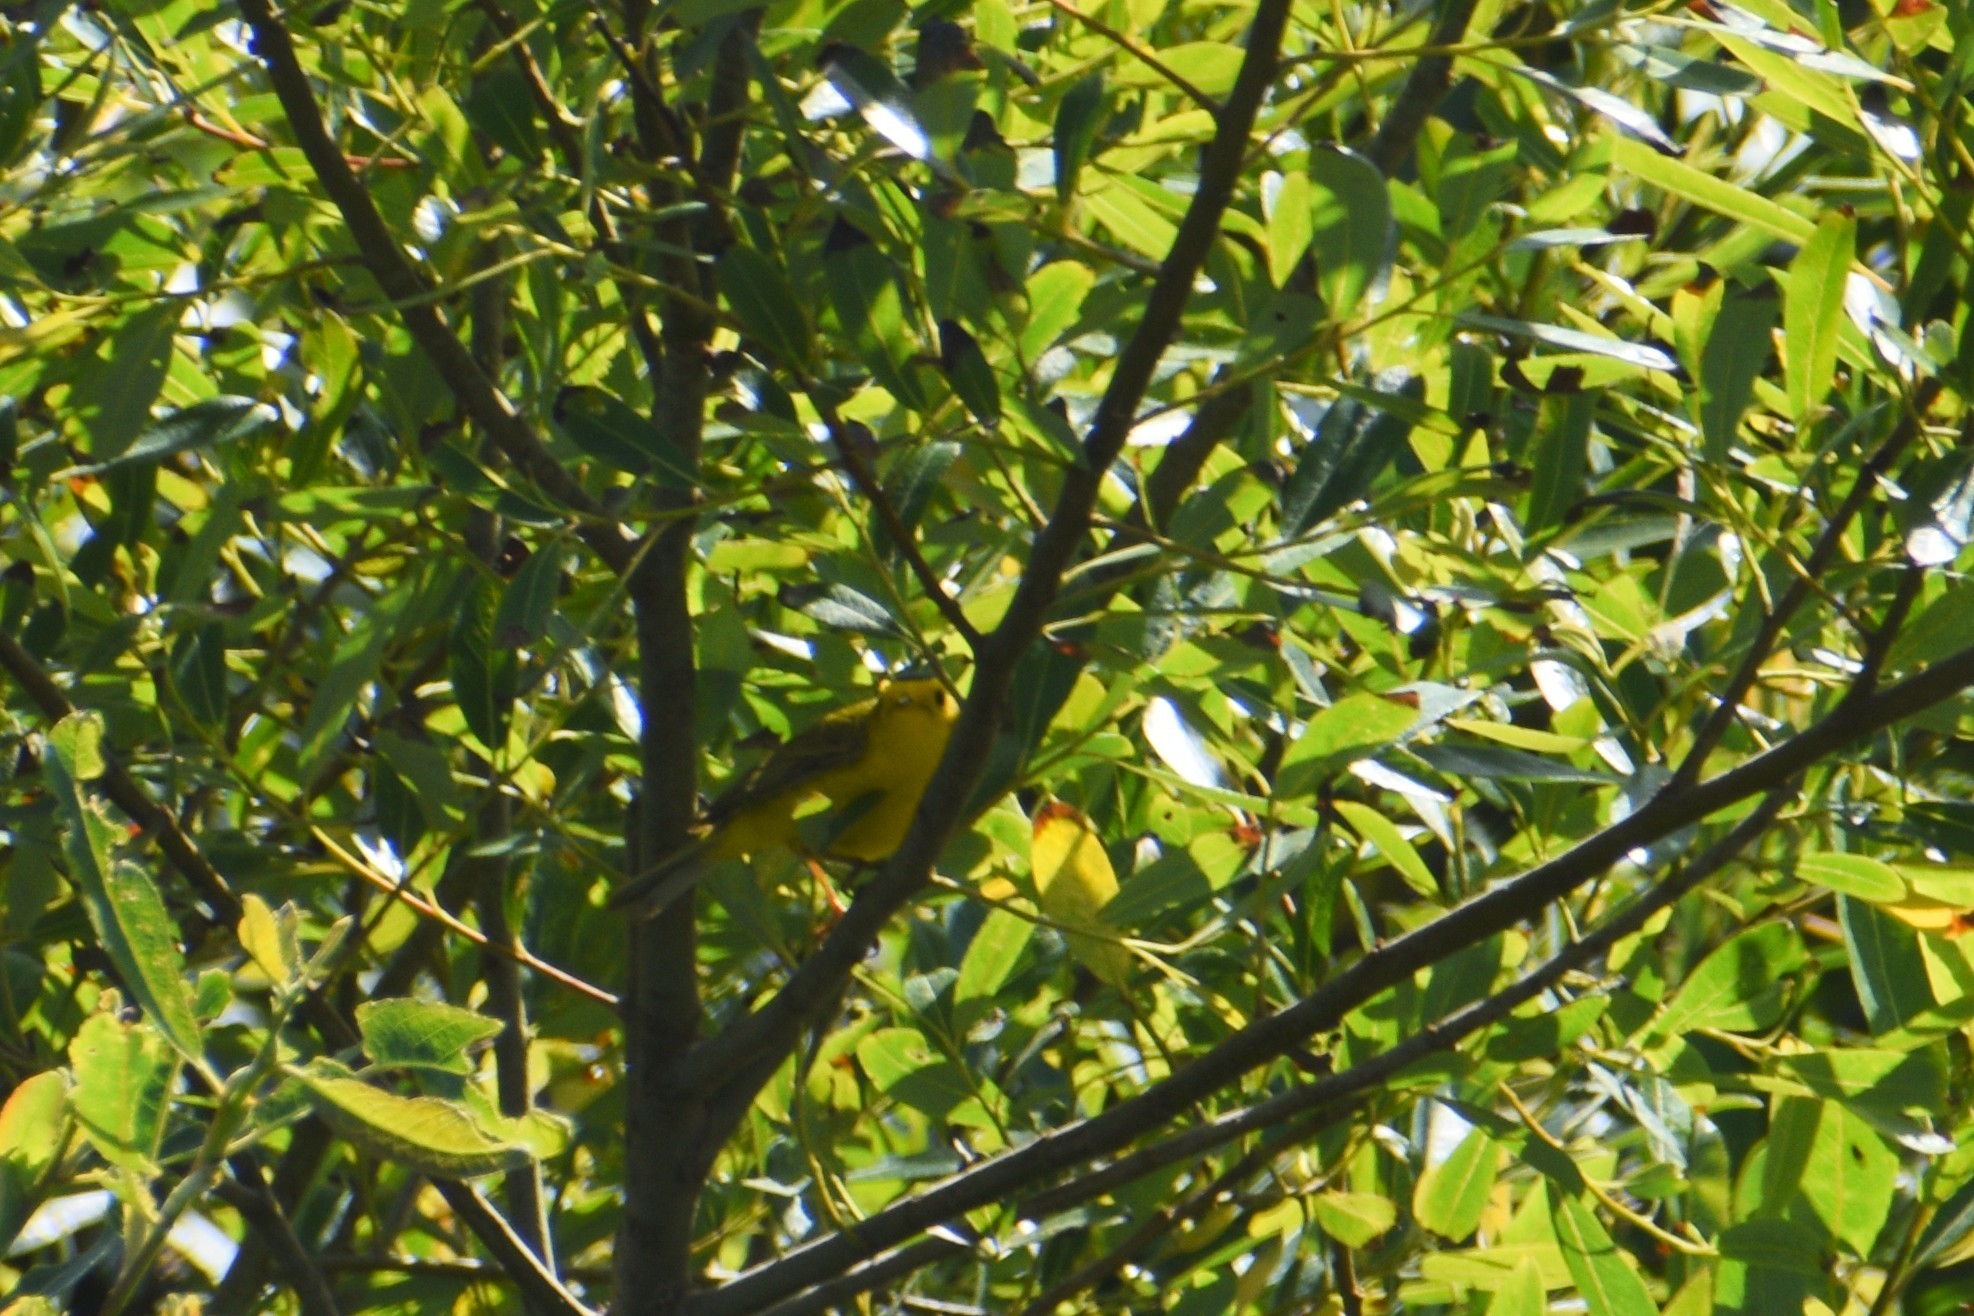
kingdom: Animalia
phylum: Chordata
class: Aves
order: Passeriformes
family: Parulidae
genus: Cardellina
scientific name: Cardellina pusilla
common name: Wilson's warbler
